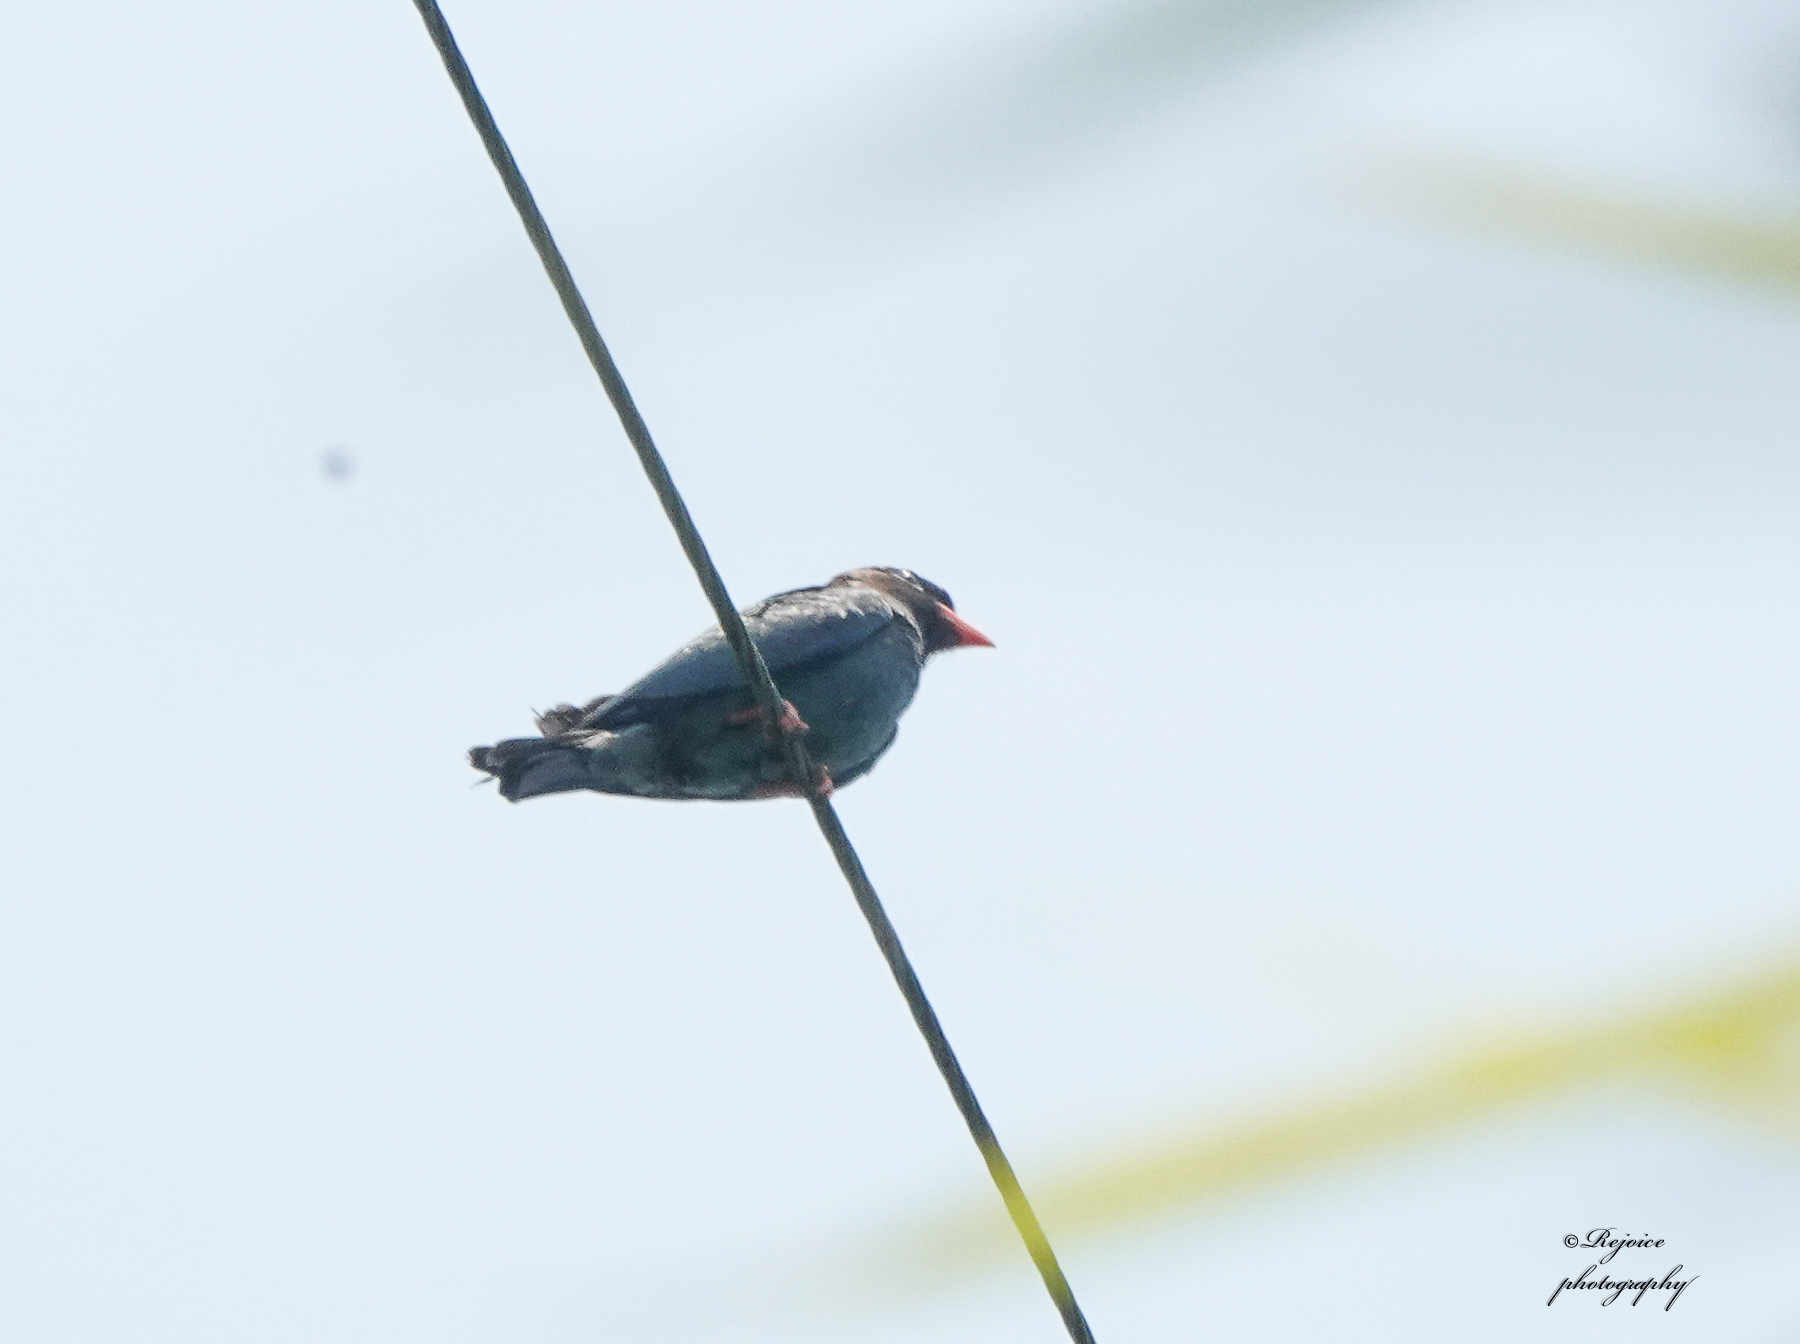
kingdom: Animalia
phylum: Chordata
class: Aves
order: Coraciiformes
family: Coraciidae
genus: Eurystomus
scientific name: Eurystomus orientalis
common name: Oriental dollarbird
